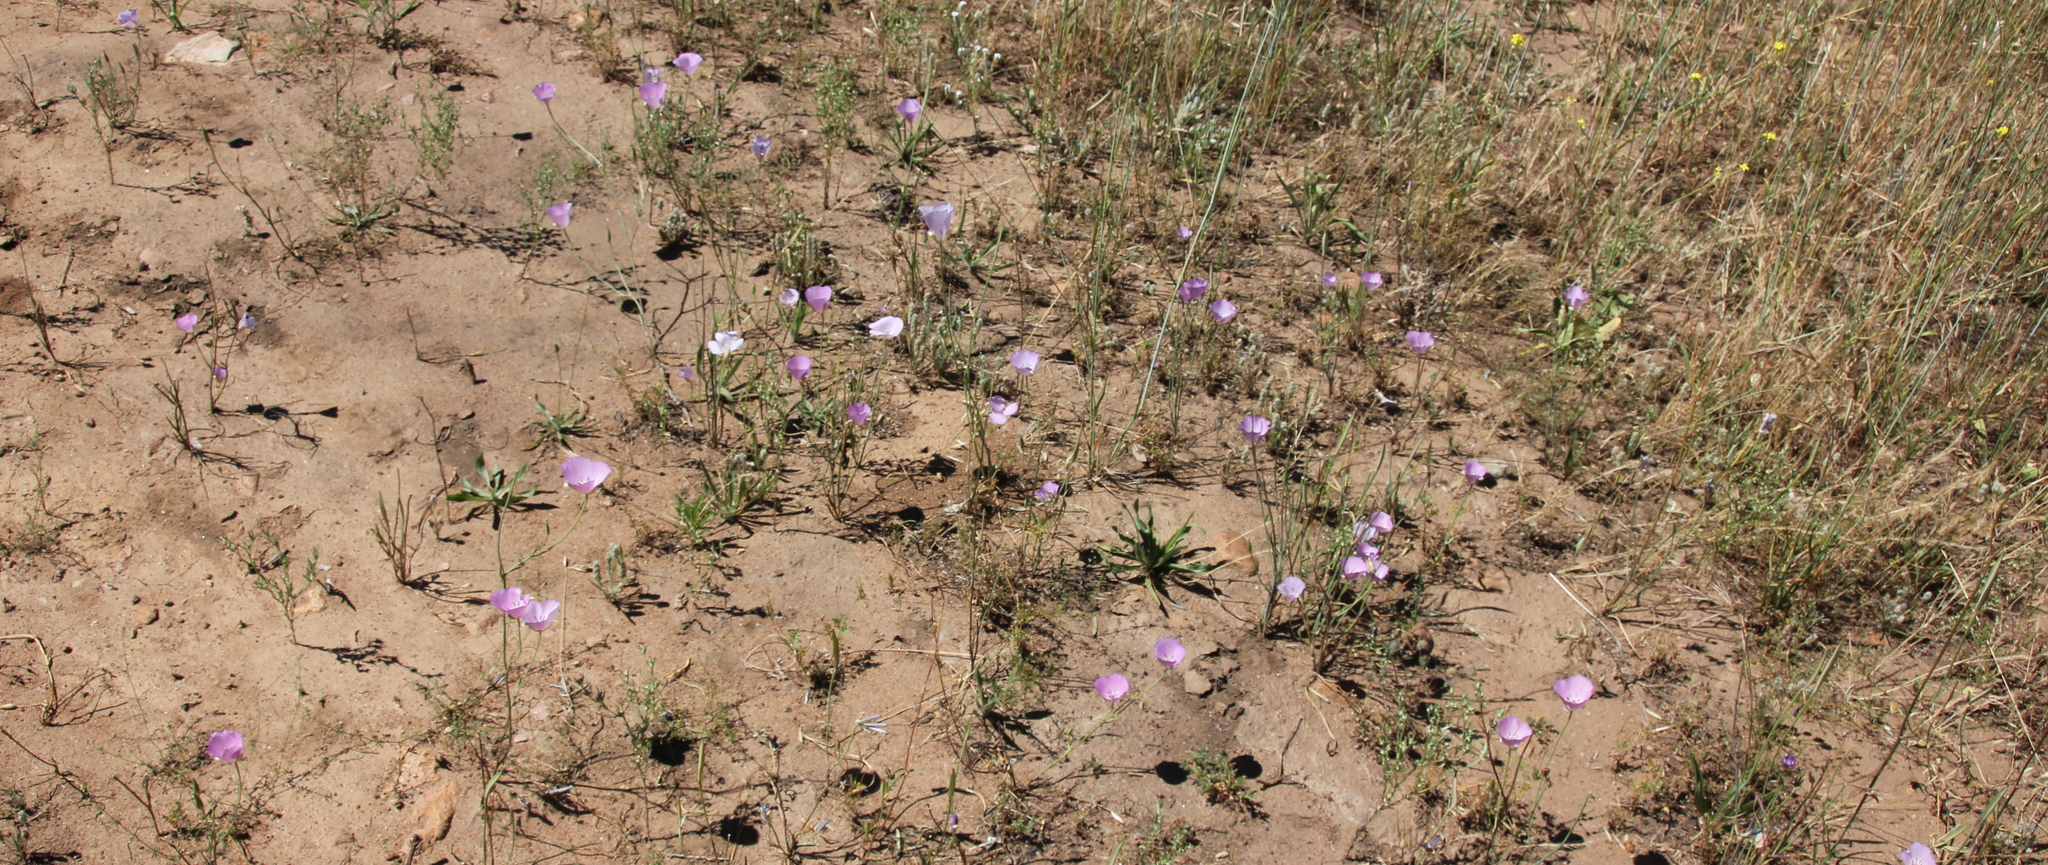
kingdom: Plantae
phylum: Tracheophyta
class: Liliopsida
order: Liliales
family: Liliaceae
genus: Calochortus
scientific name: Calochortus splendens
